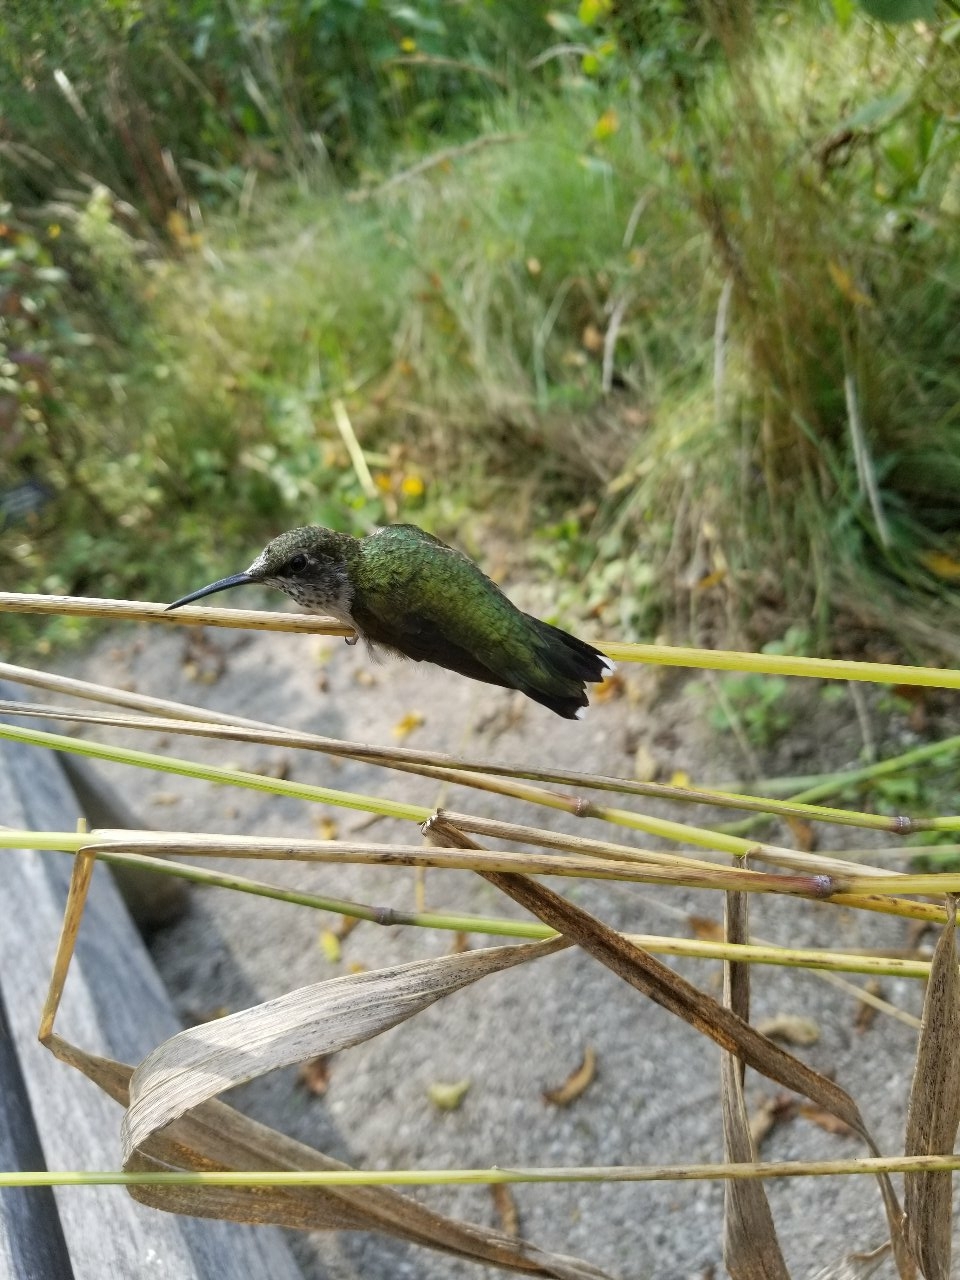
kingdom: Animalia
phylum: Chordata
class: Aves
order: Apodiformes
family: Trochilidae
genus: Archilochus
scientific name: Archilochus colubris
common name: Ruby-throated hummingbird
